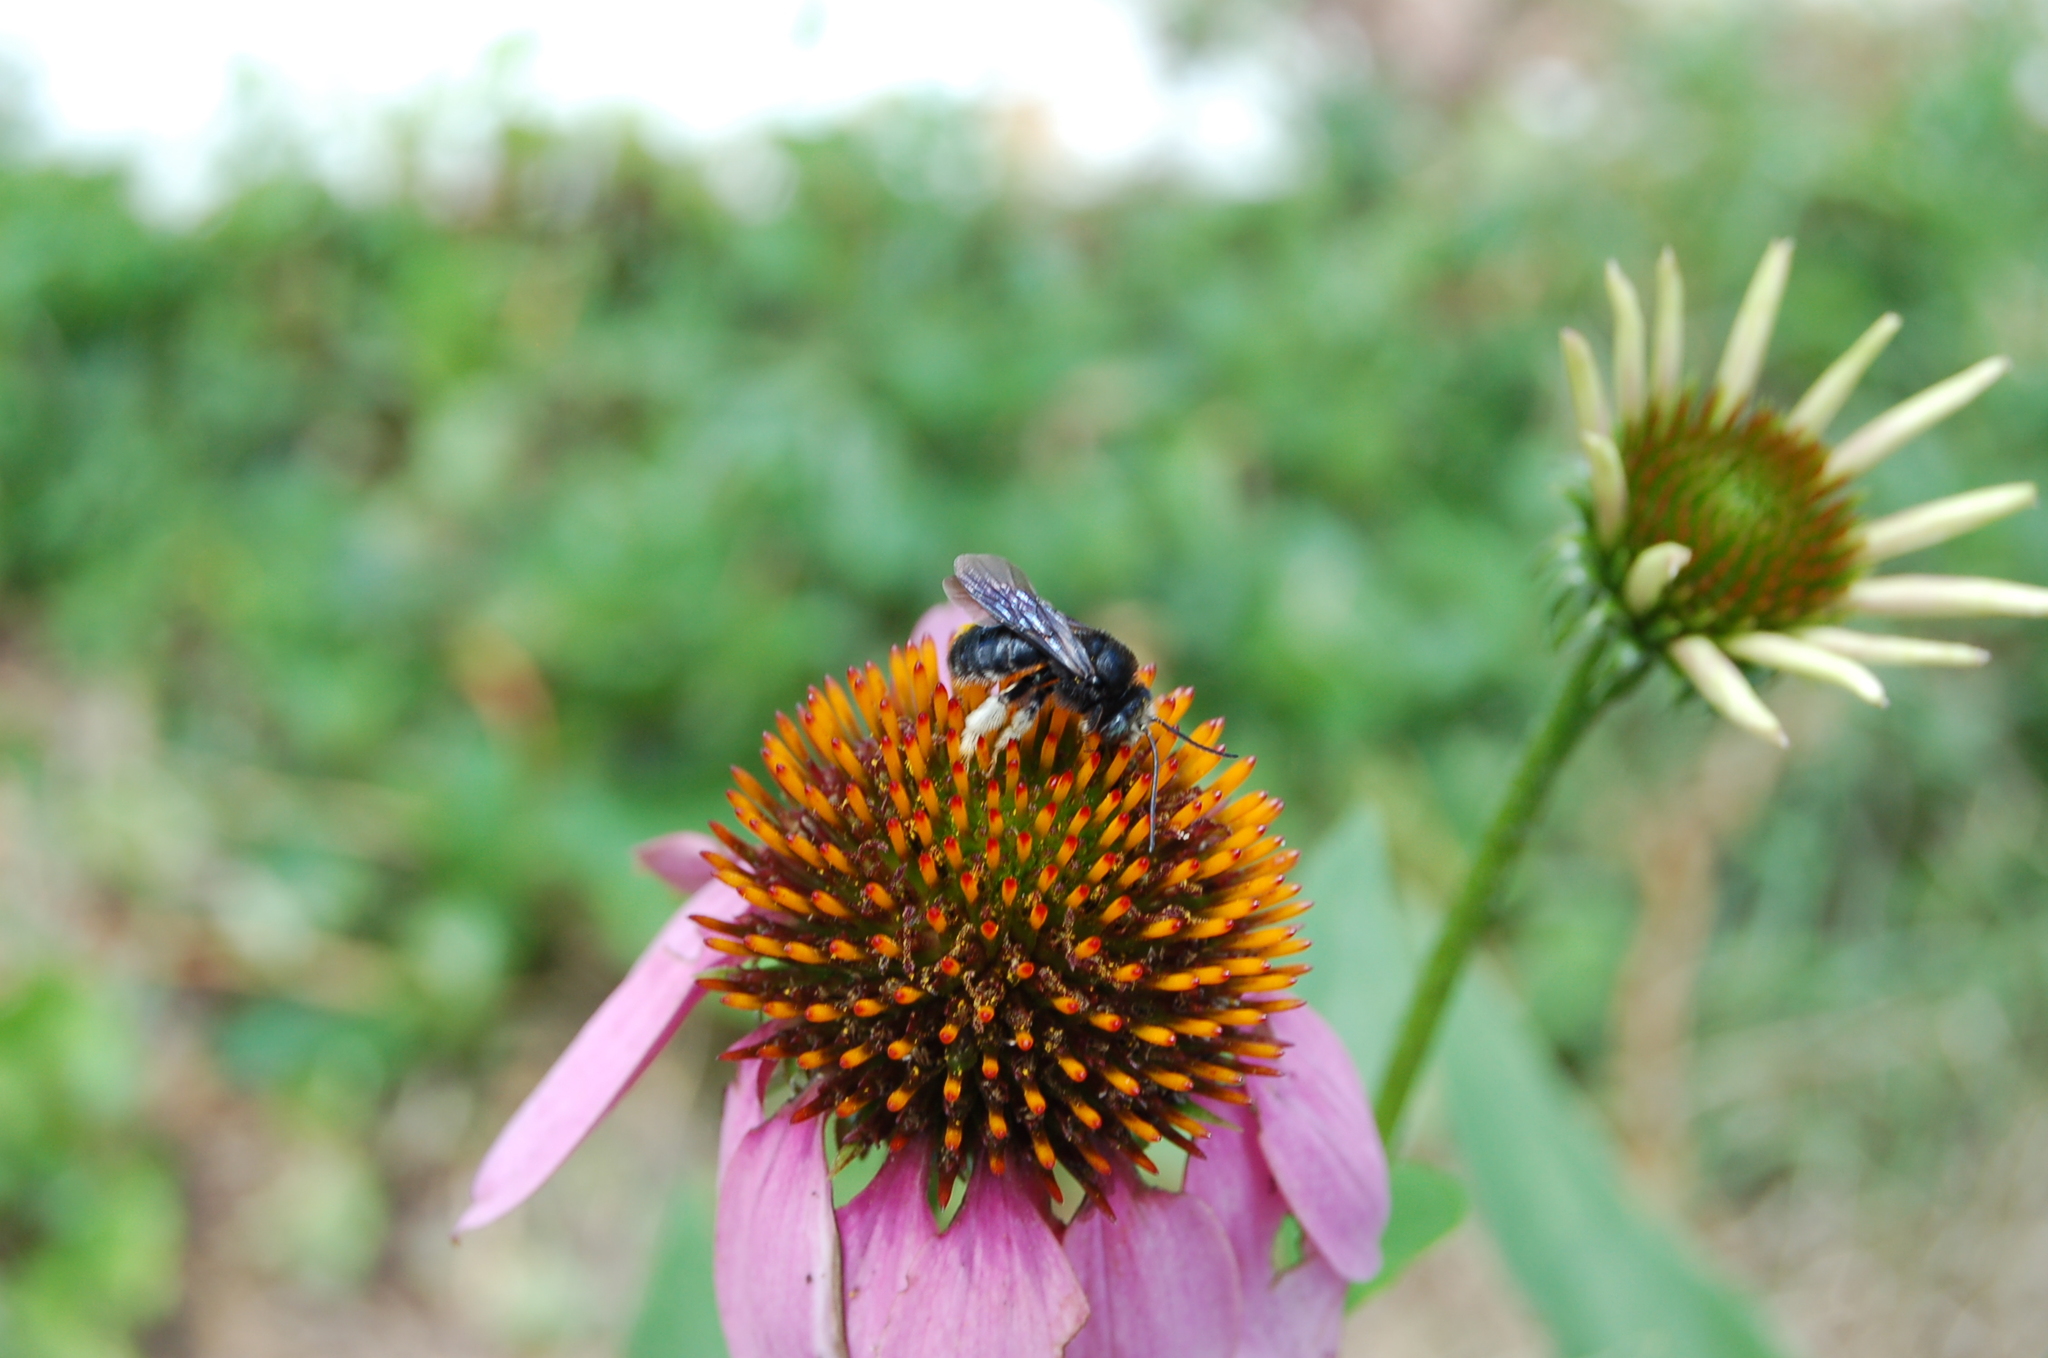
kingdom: Animalia
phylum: Arthropoda
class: Insecta
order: Hymenoptera
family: Apidae
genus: Melissodes
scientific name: Melissodes bimaculatus
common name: Two-spotted long-horned bee
